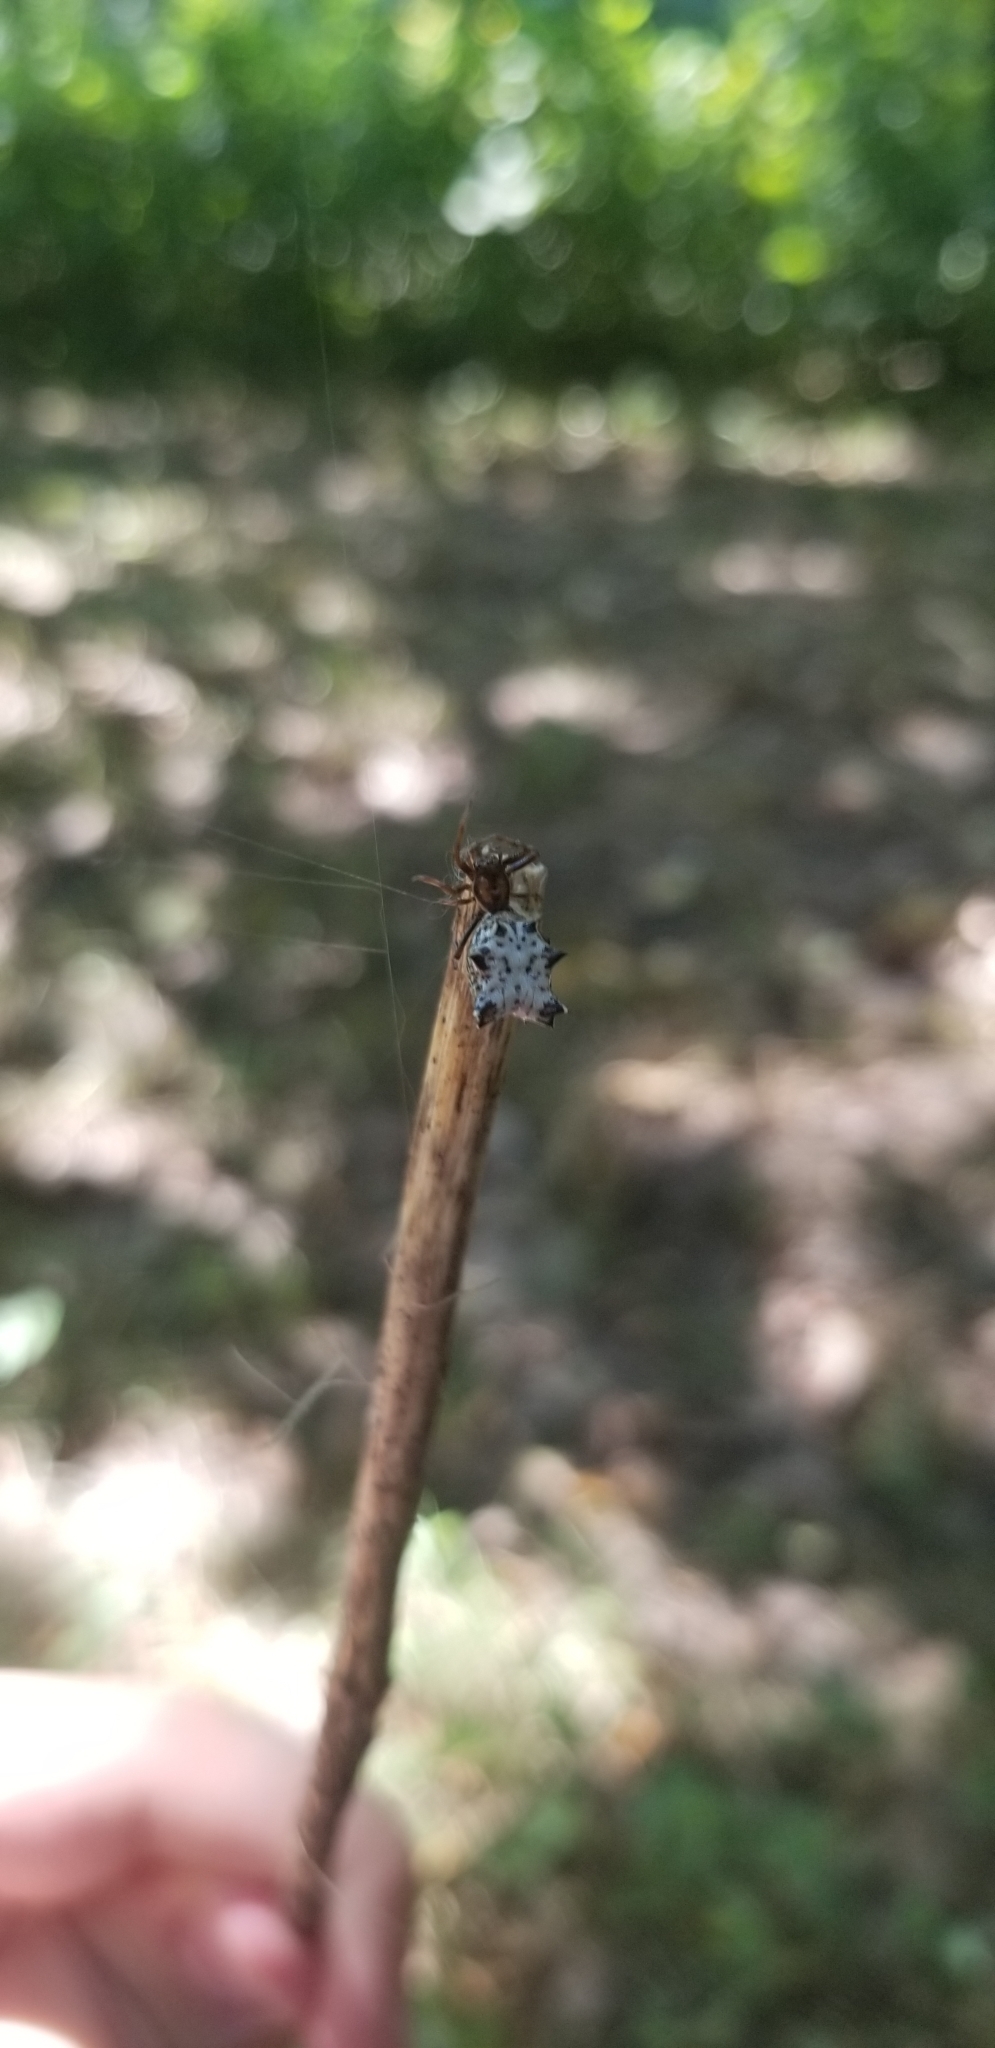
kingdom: Animalia
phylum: Arthropoda
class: Arachnida
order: Araneae
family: Araneidae
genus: Micrathena
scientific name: Micrathena gracilis
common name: Orb weavers
